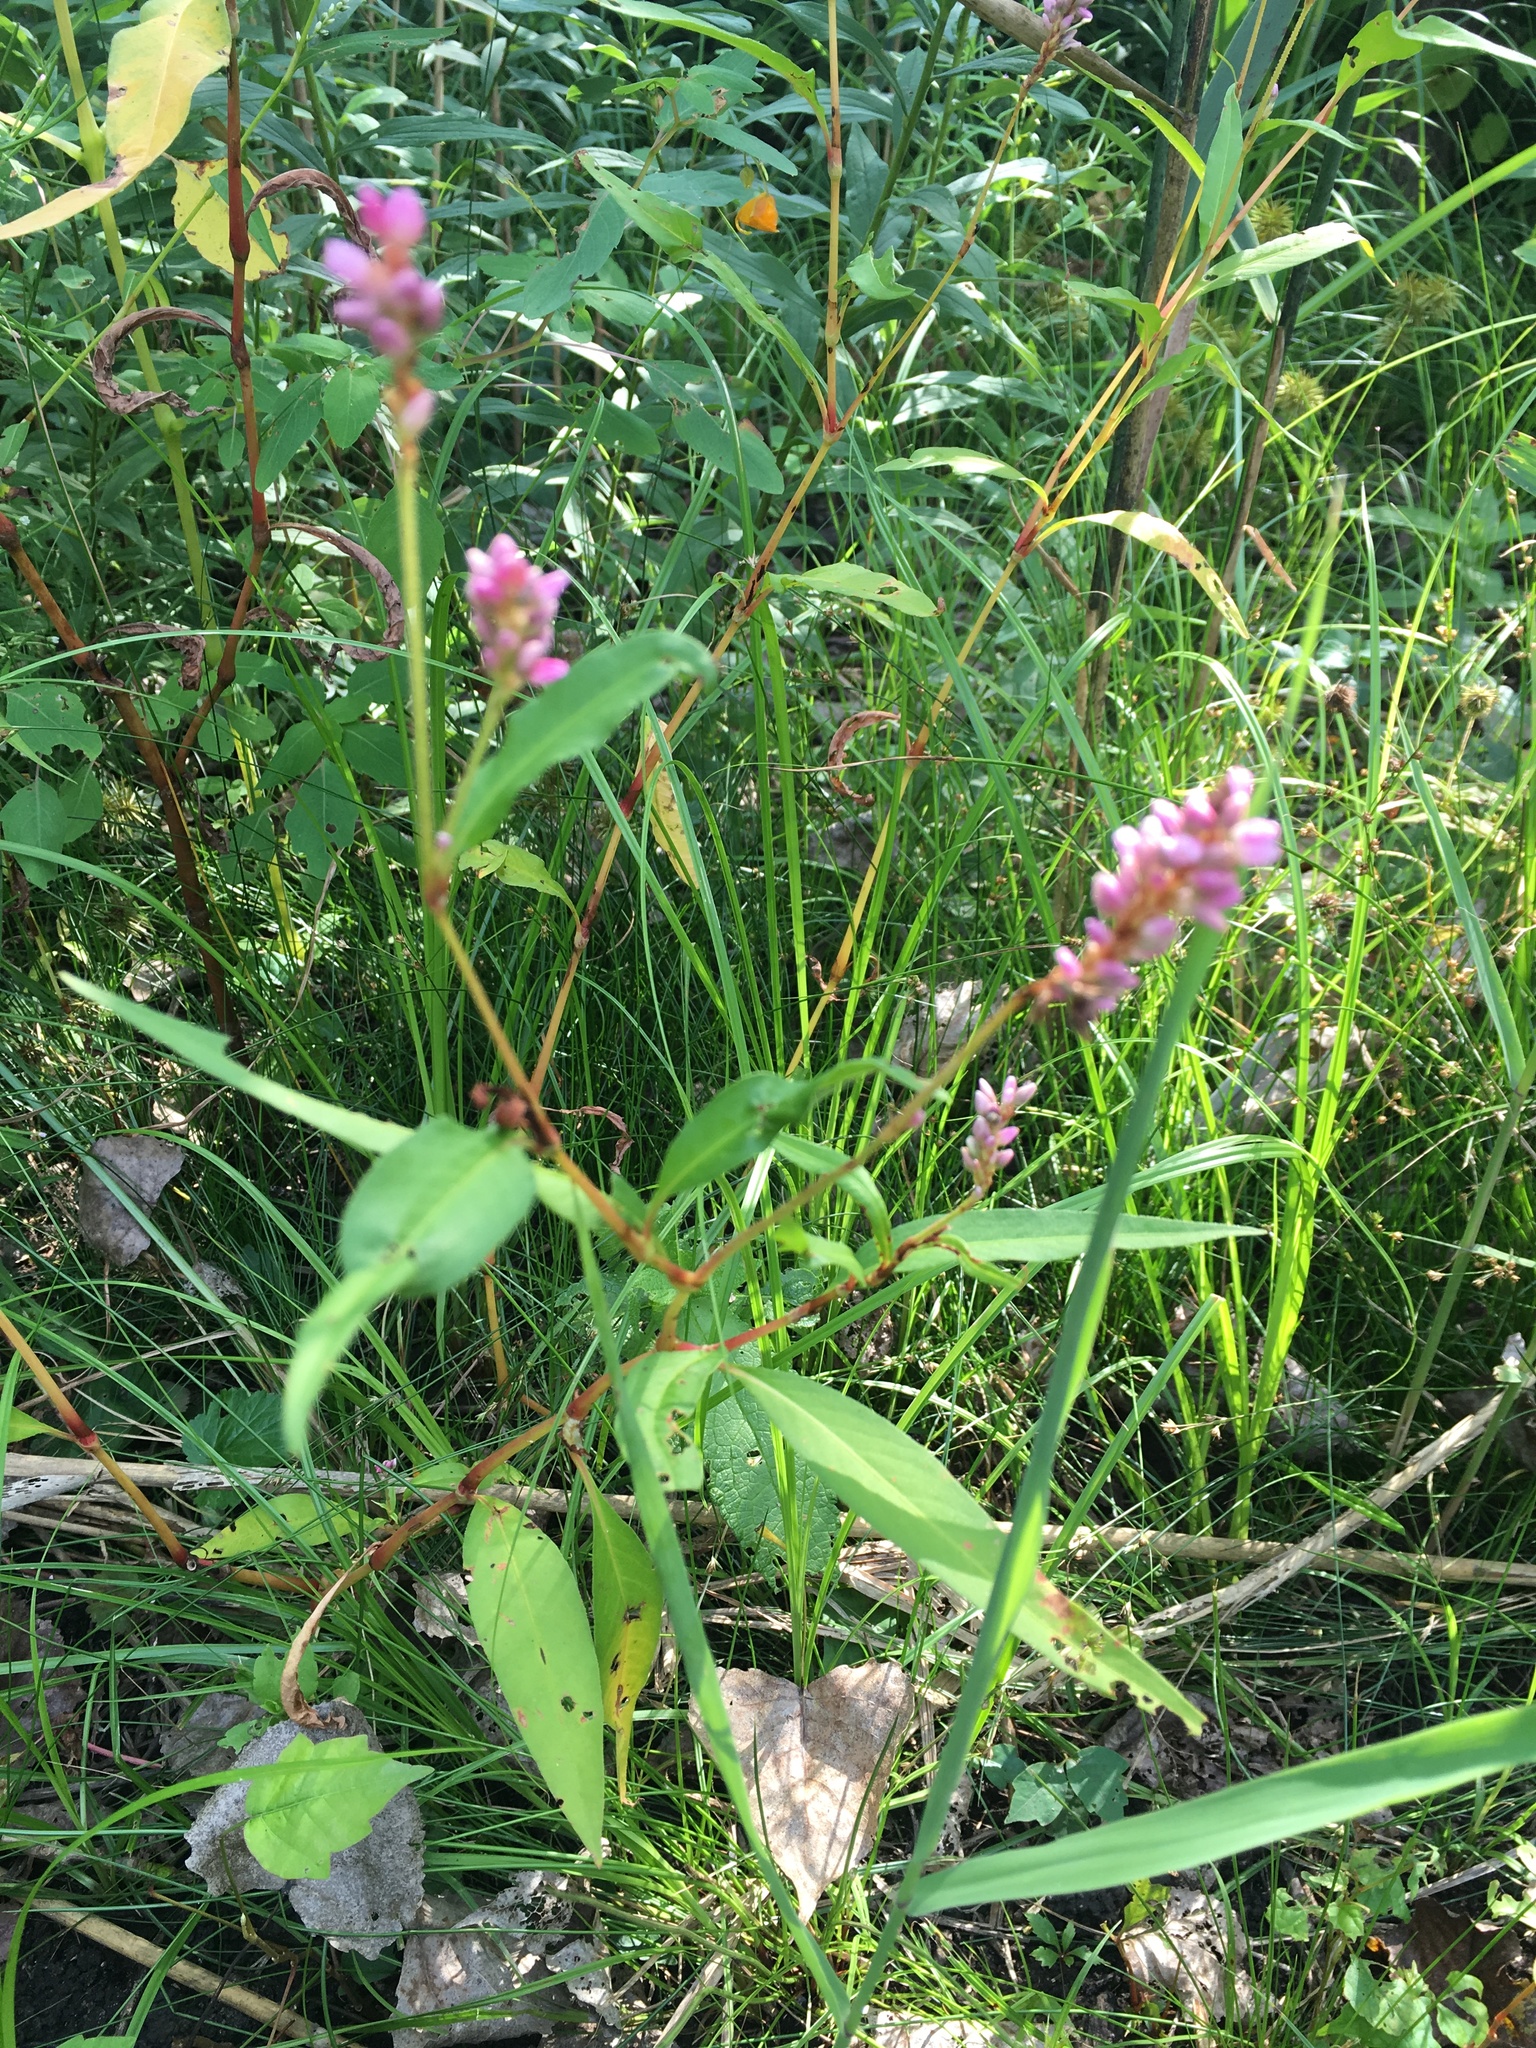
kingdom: Plantae
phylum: Tracheophyta
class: Magnoliopsida
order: Caryophyllales
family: Polygonaceae
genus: Persicaria
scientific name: Persicaria pensylvanica
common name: Pinkweed
